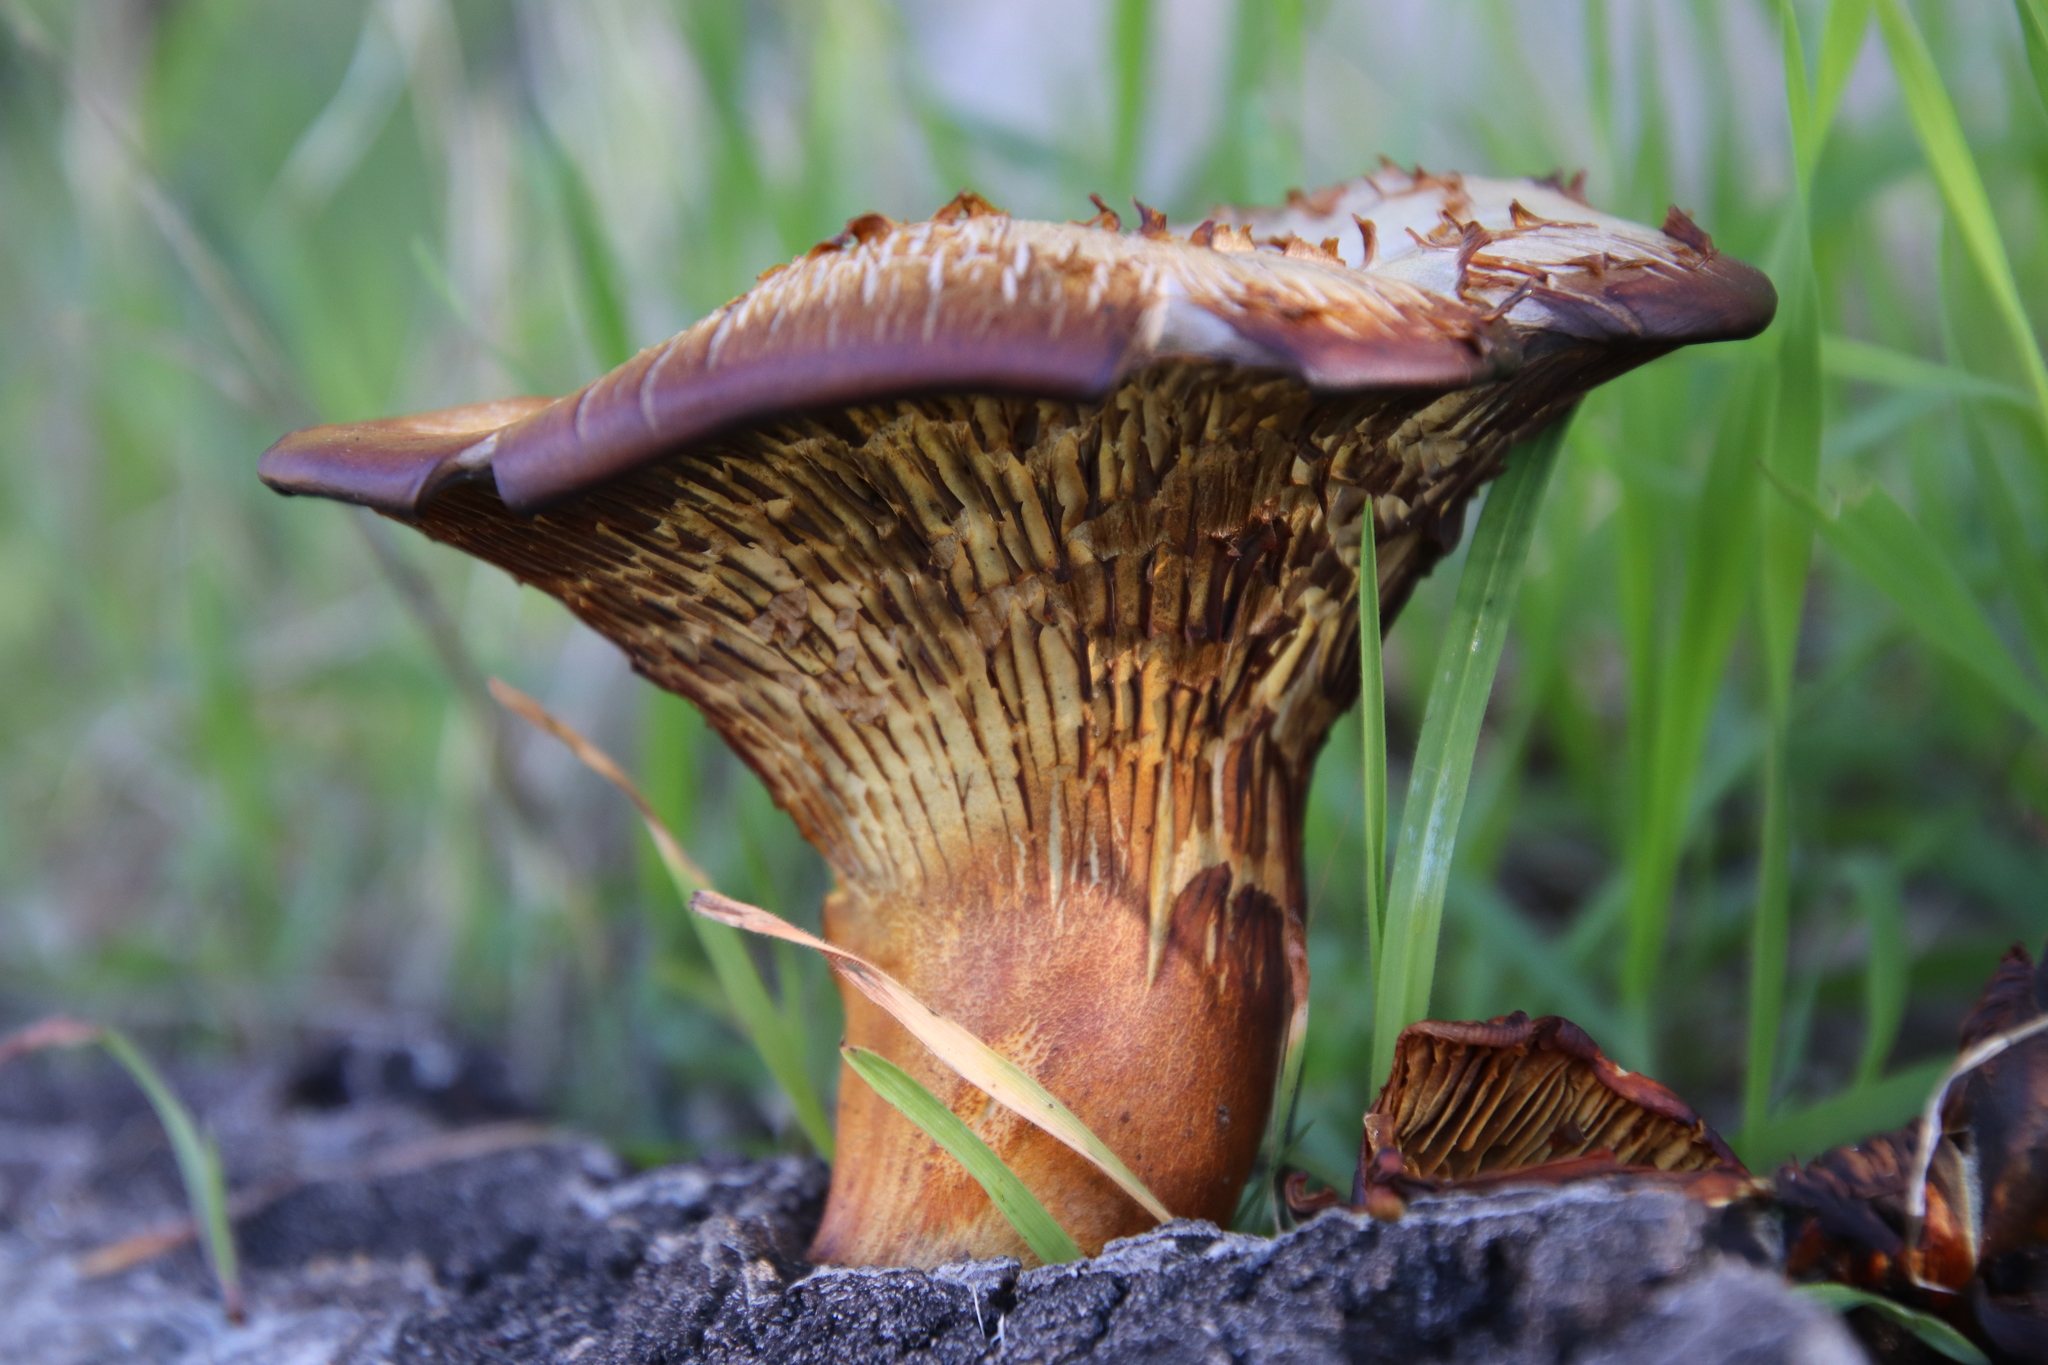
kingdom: Fungi
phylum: Basidiomycota
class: Agaricomycetes
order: Agaricales
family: Omphalotaceae
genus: Omphalotus
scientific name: Omphalotus olivascens
